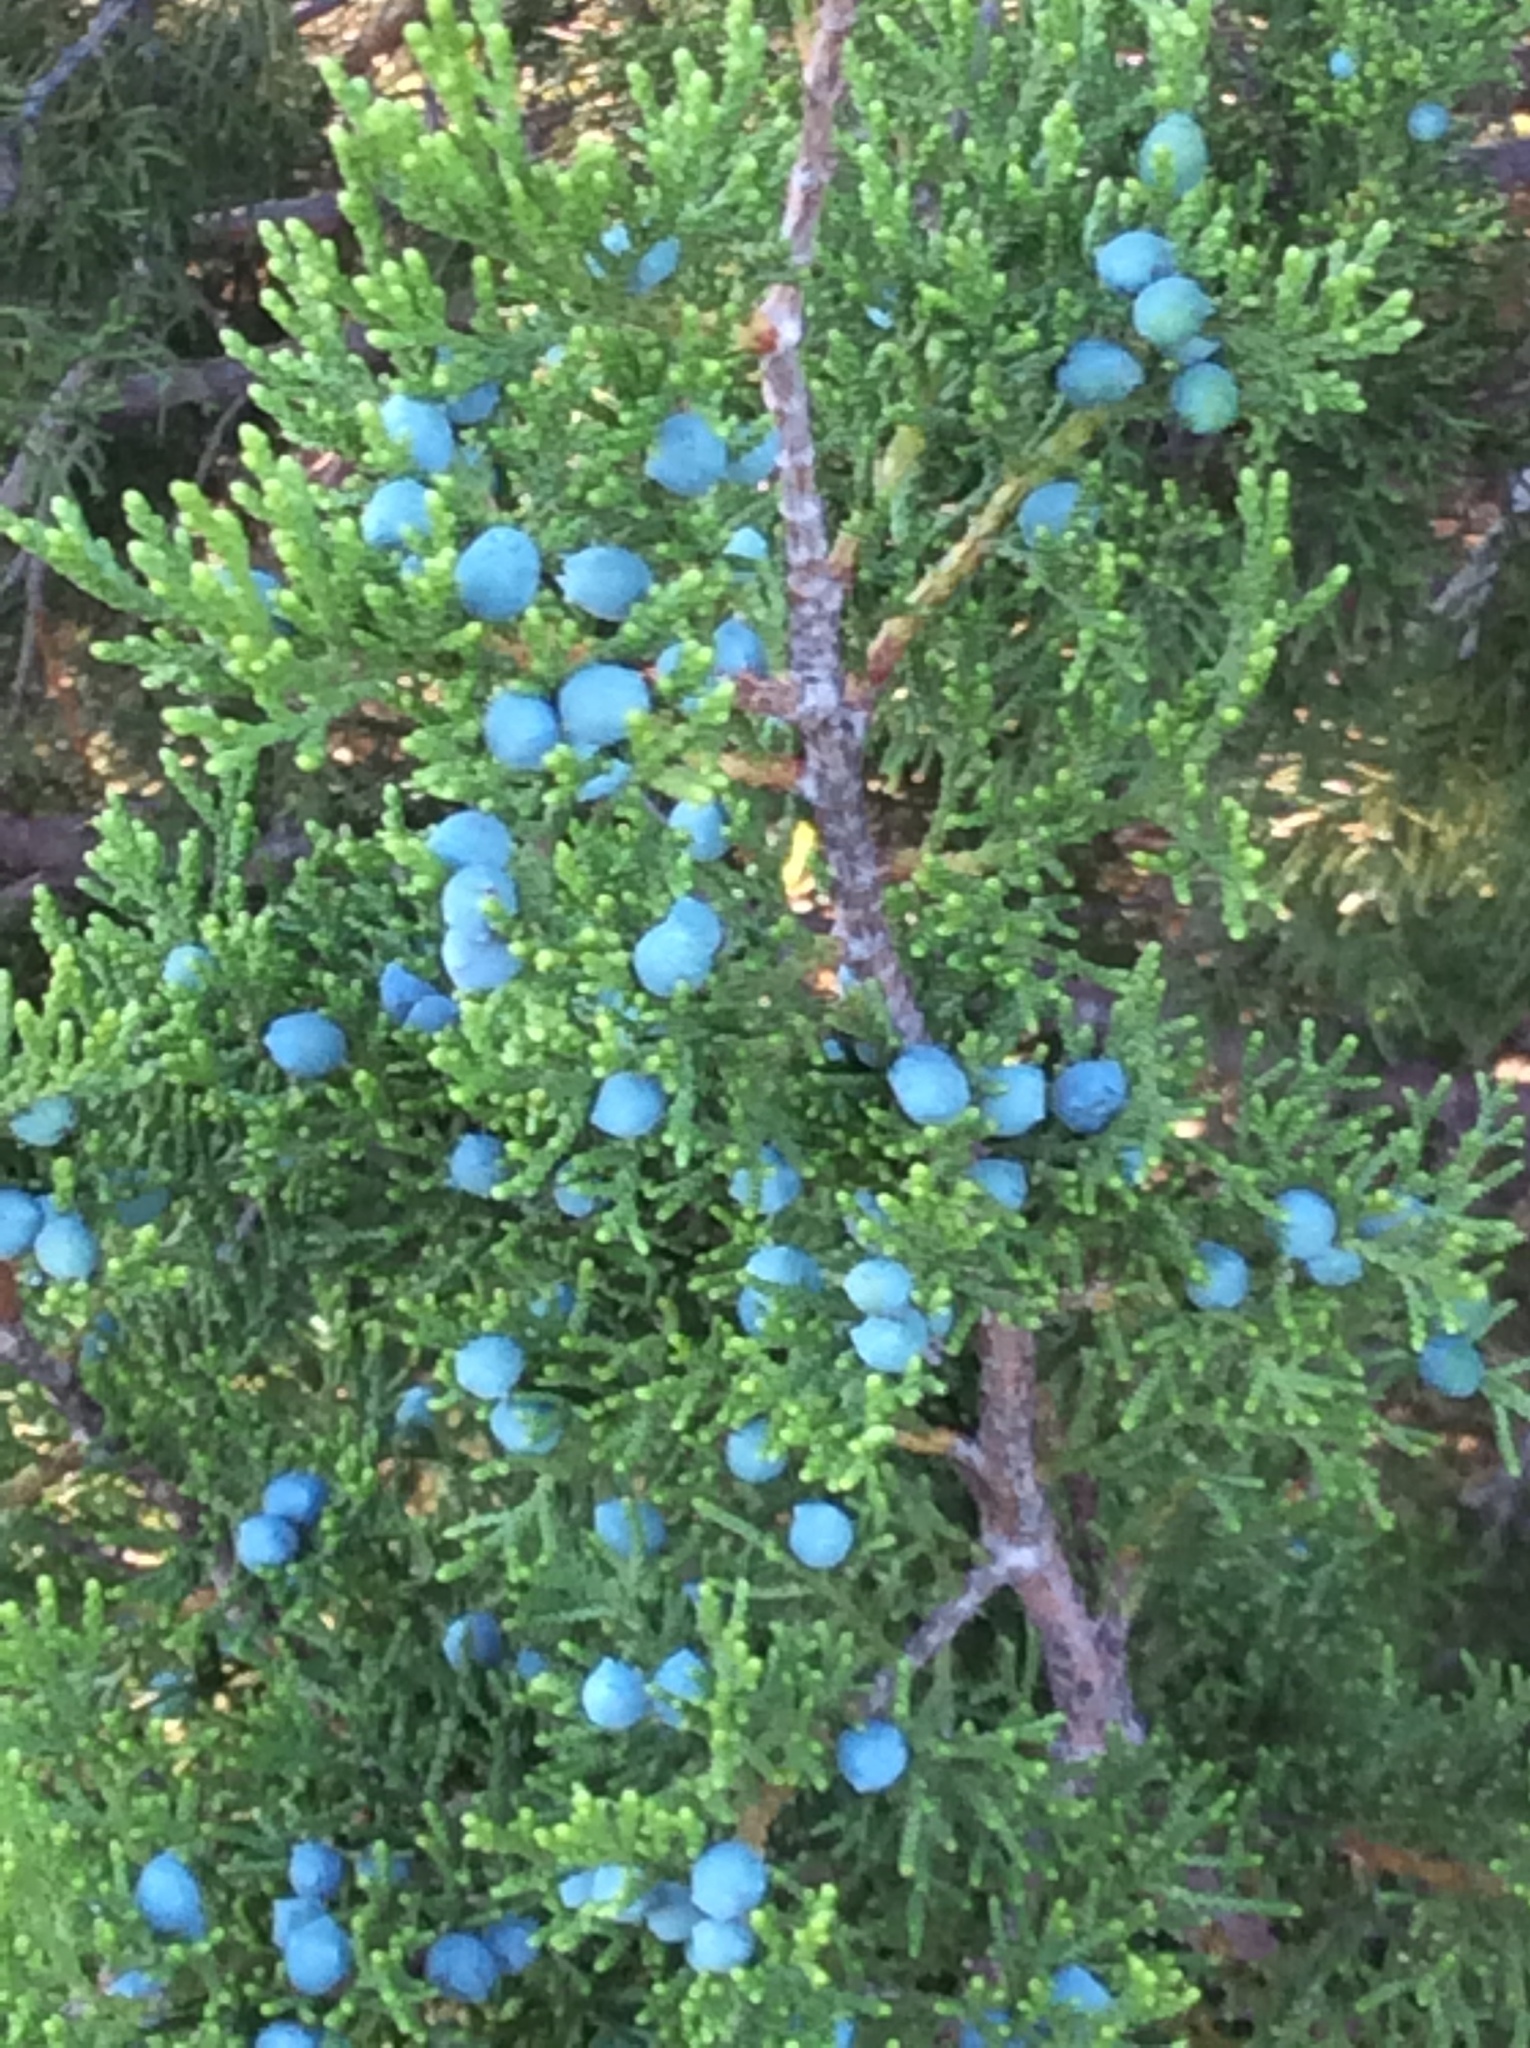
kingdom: Plantae
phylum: Tracheophyta
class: Pinopsida
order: Pinales
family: Cupressaceae
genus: Juniperus
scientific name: Juniperus ashei
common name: Mexican juniper
